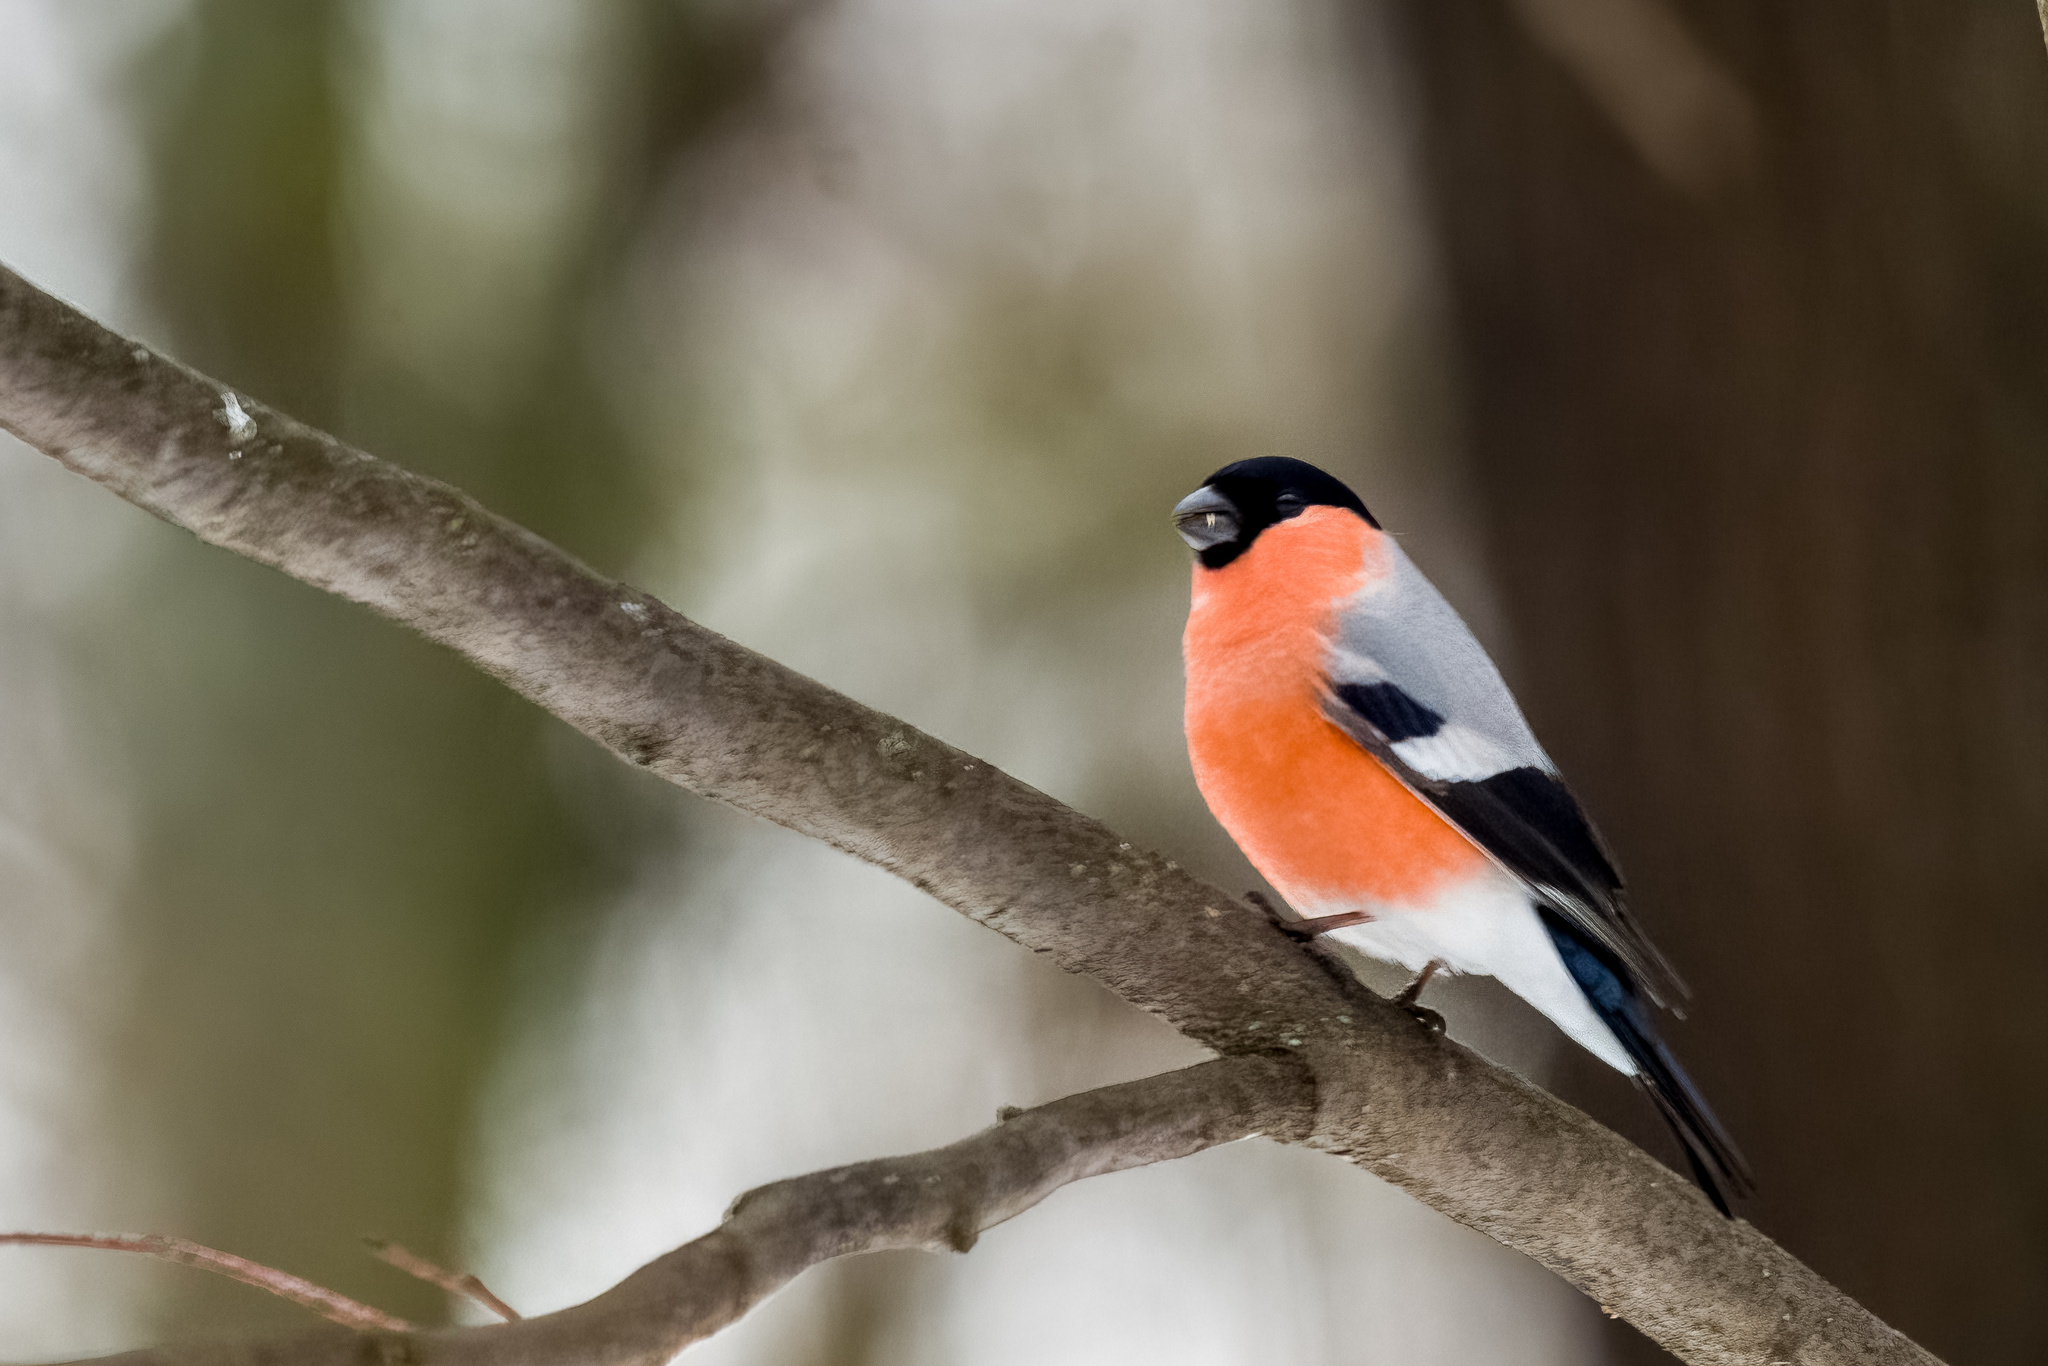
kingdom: Animalia
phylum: Chordata
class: Aves
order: Passeriformes
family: Fringillidae
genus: Pyrrhula
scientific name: Pyrrhula pyrrhula
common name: Eurasian bullfinch
